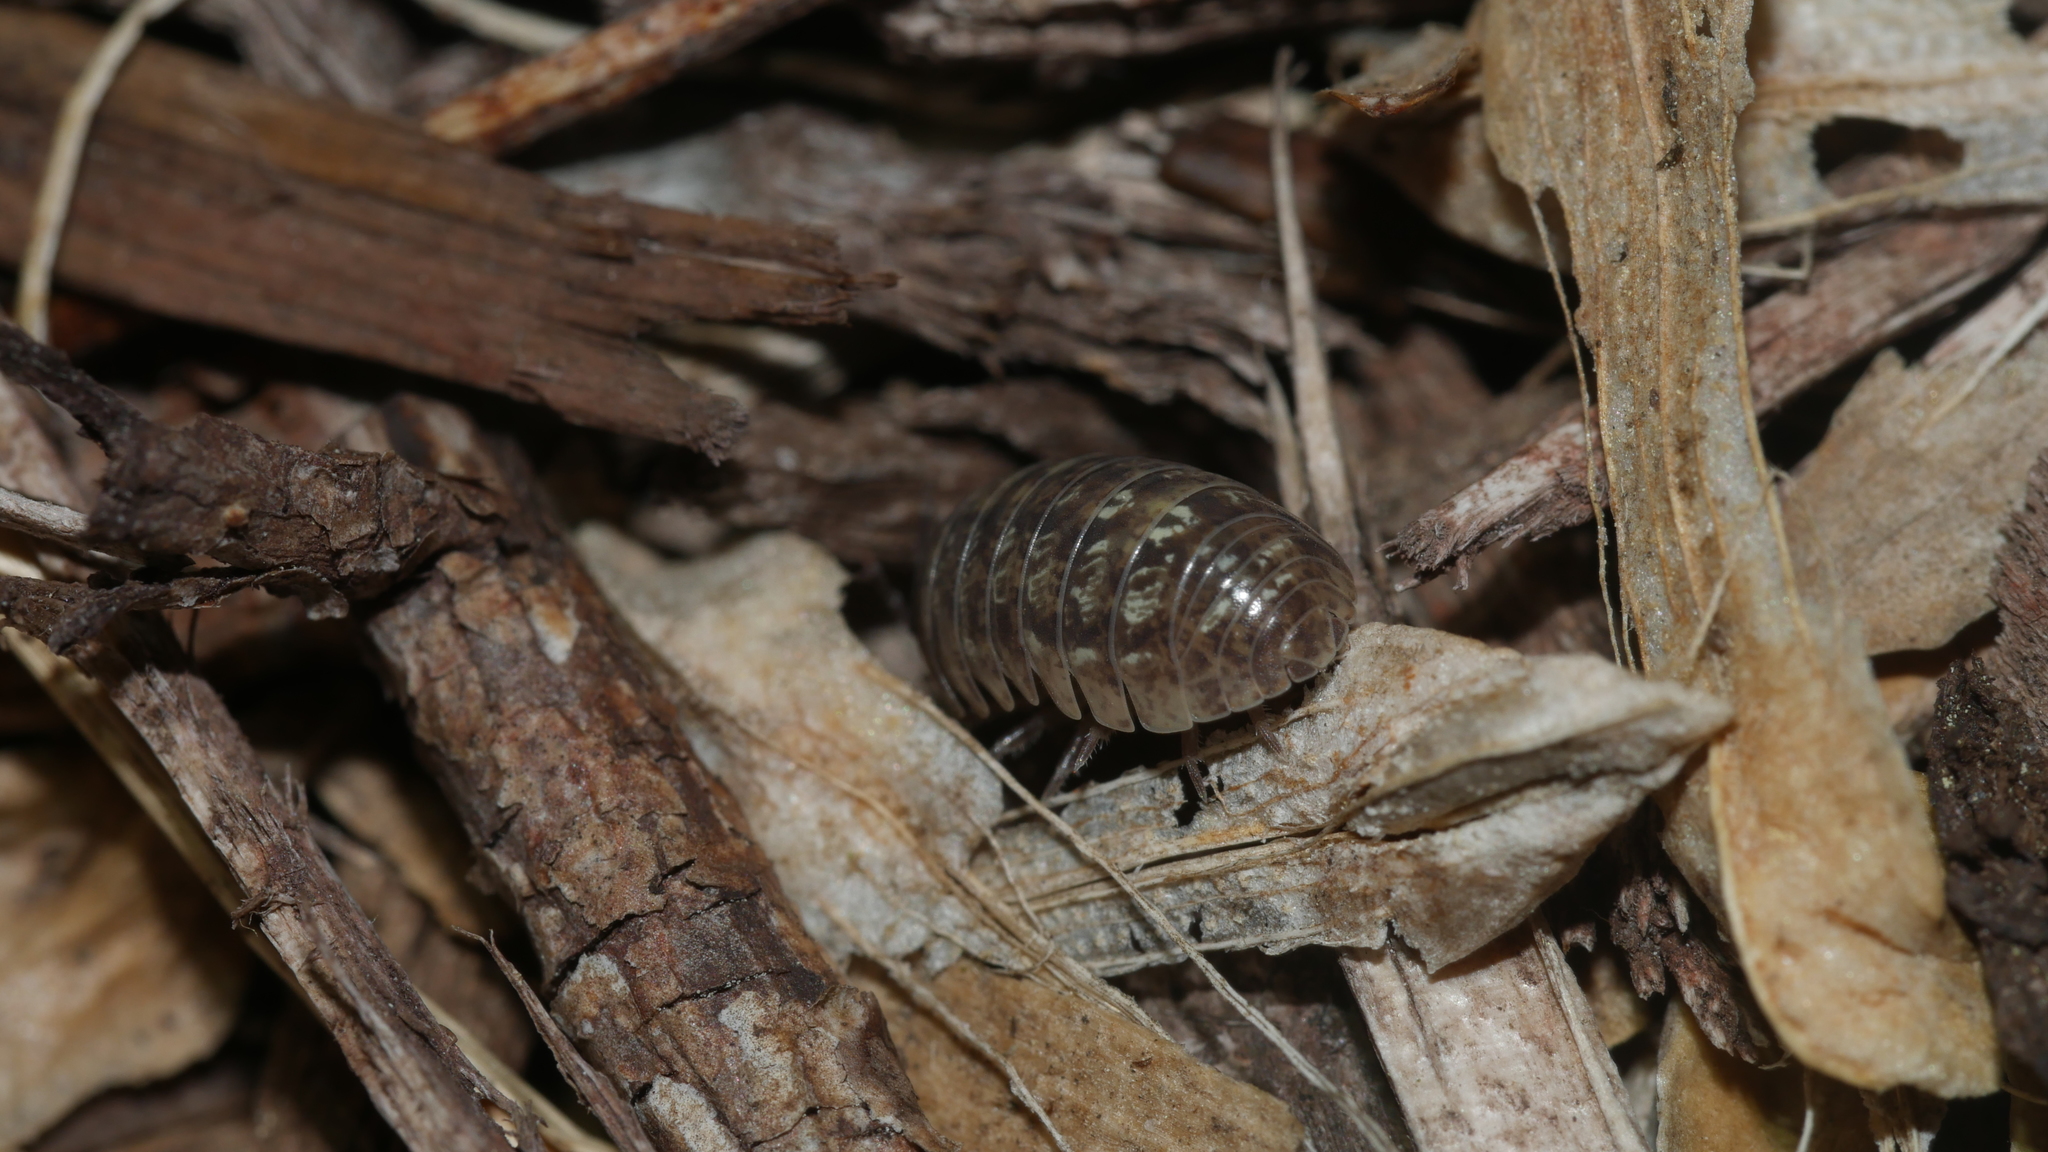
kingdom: Animalia
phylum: Arthropoda
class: Malacostraca
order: Isopoda
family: Armadillidiidae
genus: Armadillidium
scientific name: Armadillidium vulgare
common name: Common pill woodlouse
